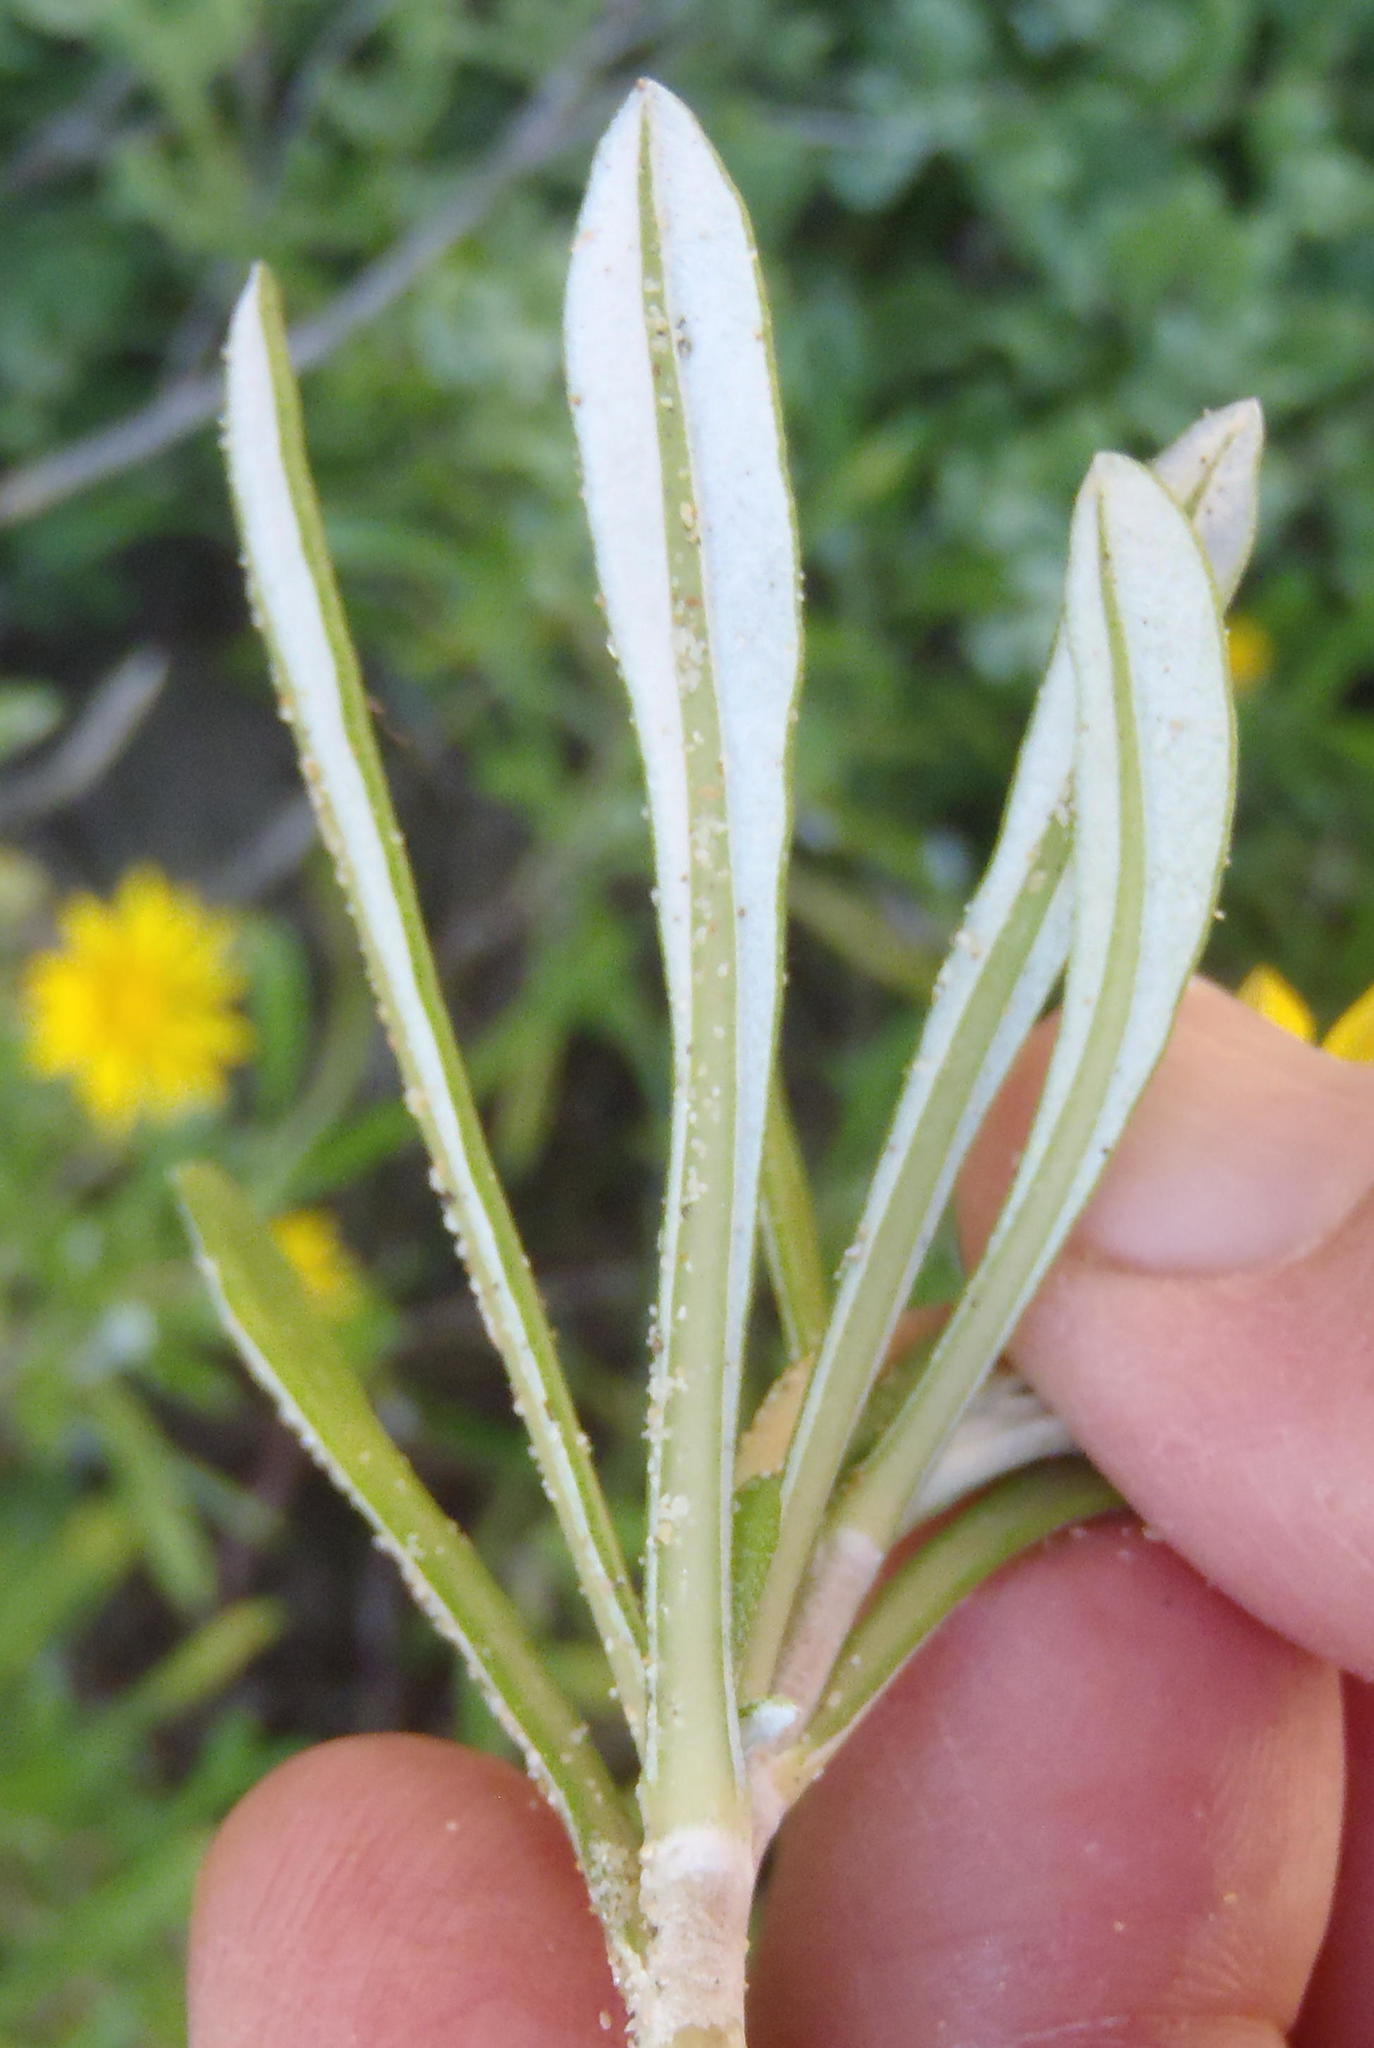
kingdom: Plantae
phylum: Tracheophyta
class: Magnoliopsida
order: Asterales
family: Asteraceae
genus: Gazania
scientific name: Gazania rigens
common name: Treasureflower
